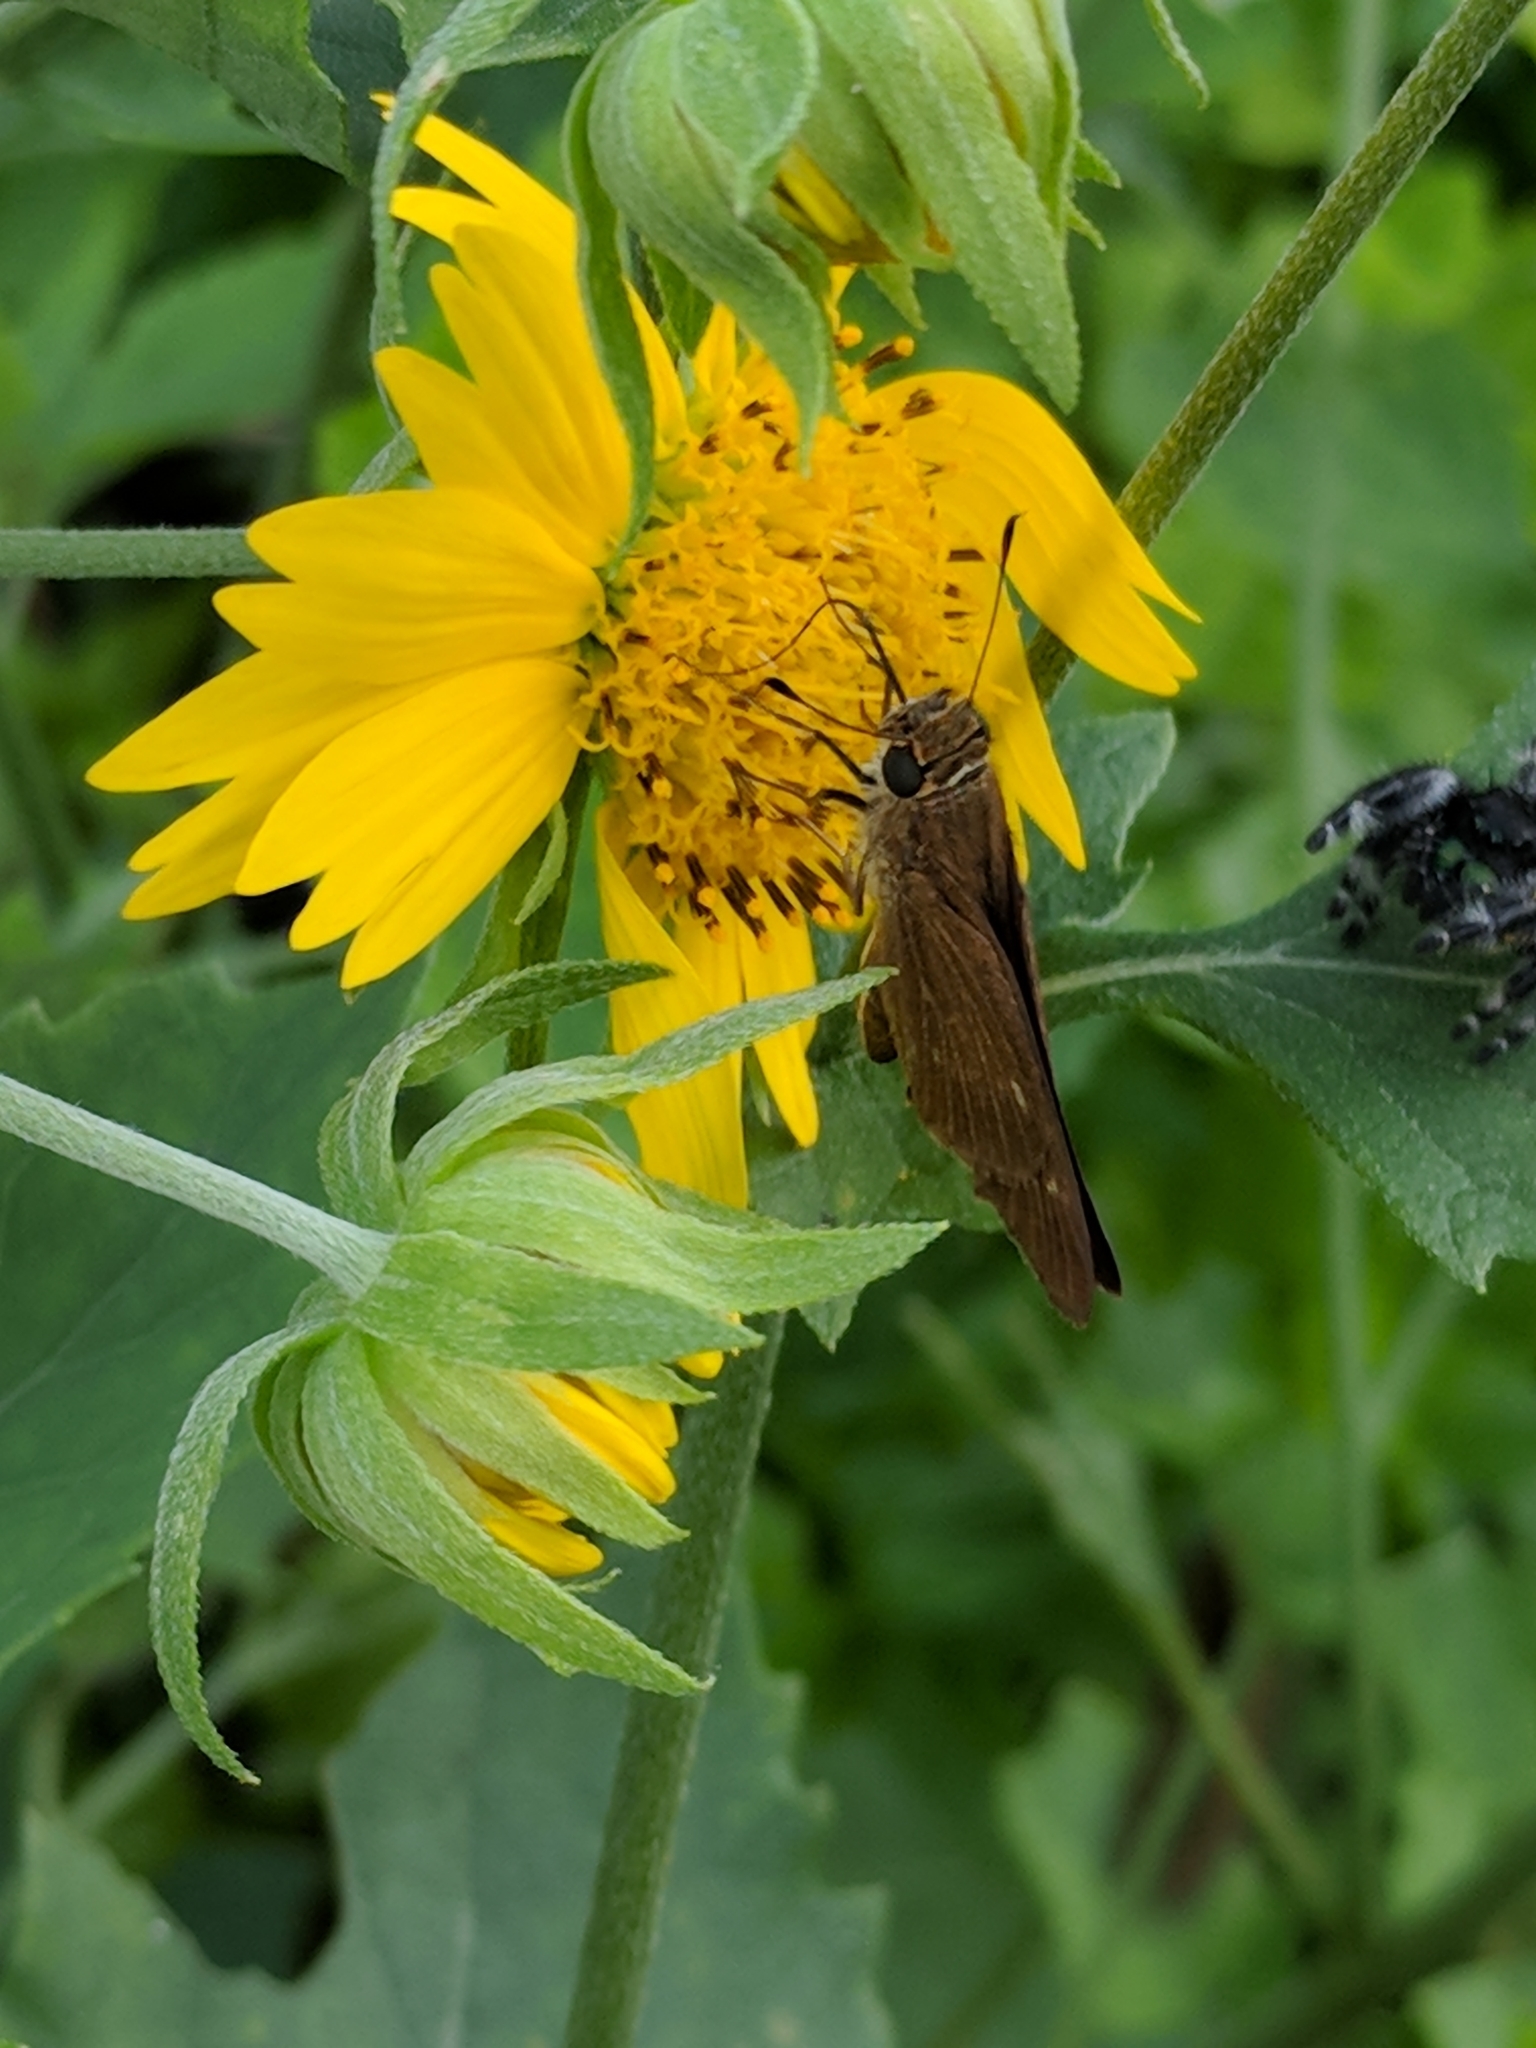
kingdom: Animalia
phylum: Arthropoda
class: Insecta
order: Lepidoptera
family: Hesperiidae
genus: Panoquina
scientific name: Panoquina ocola
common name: Ocola skipper
